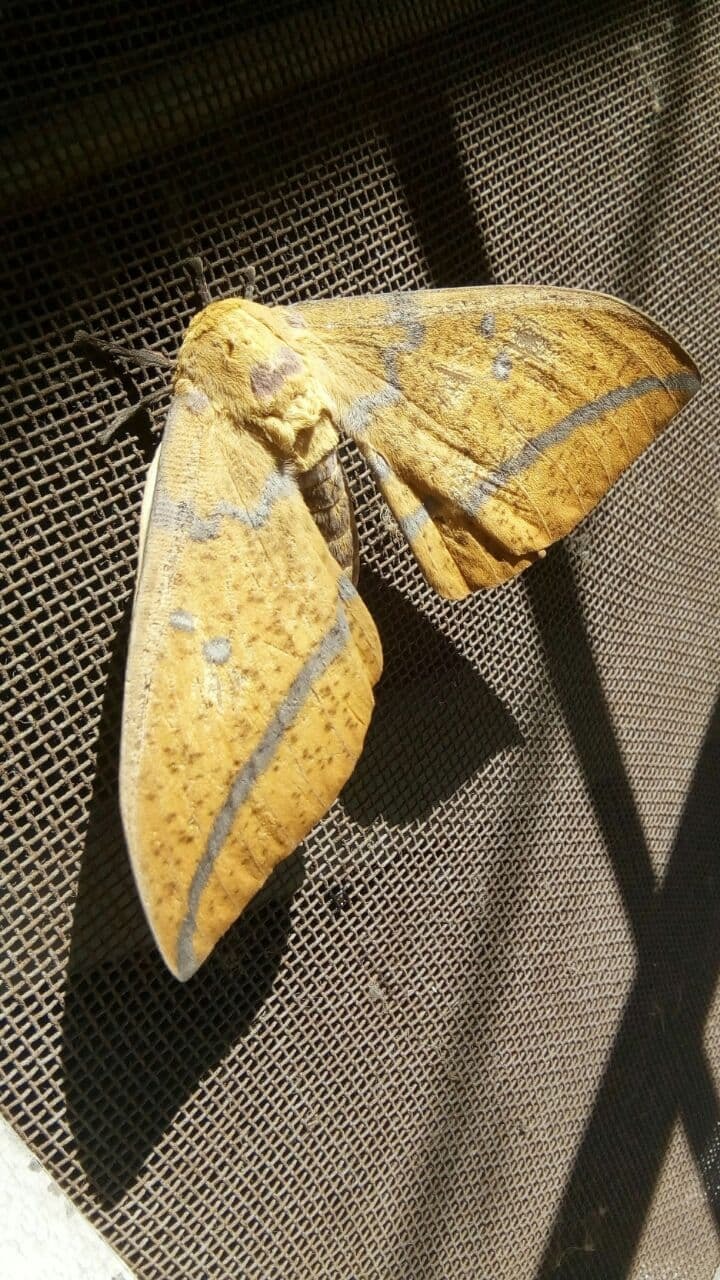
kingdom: Animalia
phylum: Arthropoda
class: Insecta
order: Lepidoptera
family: Saturniidae
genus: Eacles
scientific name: Eacles imperialis
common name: Imperial moth
